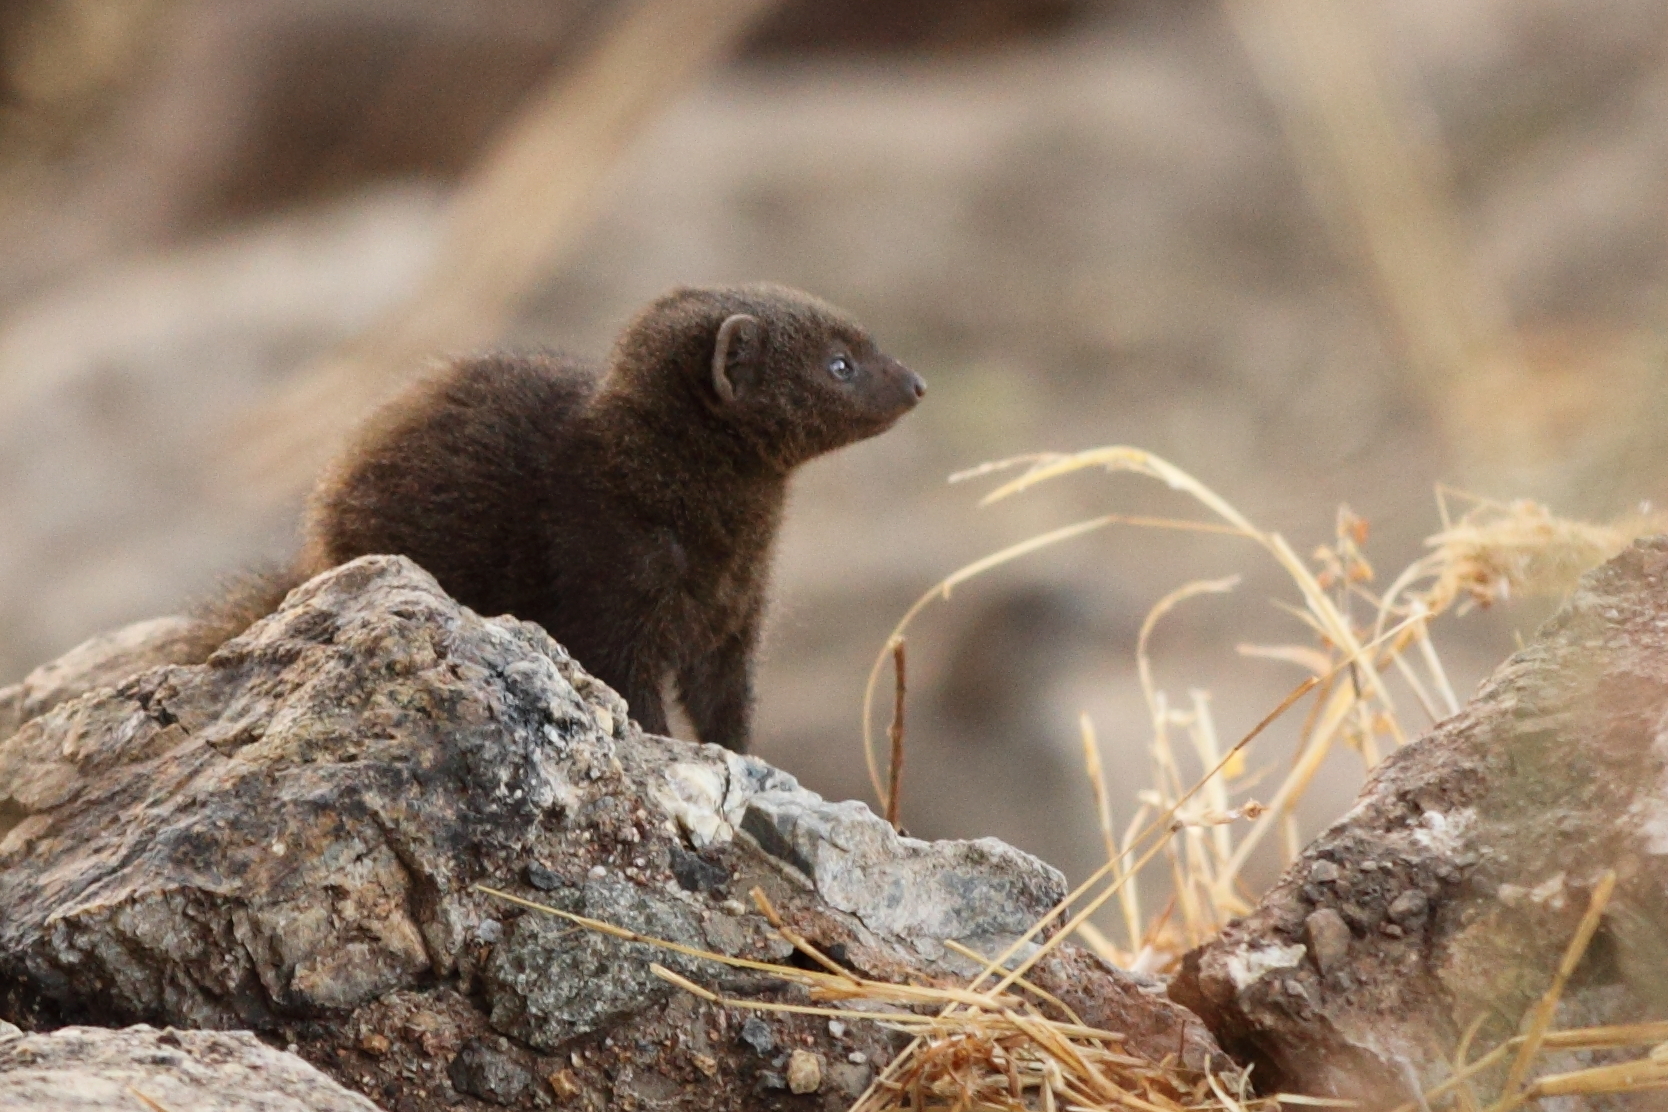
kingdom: Animalia
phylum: Chordata
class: Mammalia
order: Carnivora
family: Herpestidae
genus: Helogale
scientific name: Helogale parvula
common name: Common dwarf mongoose
